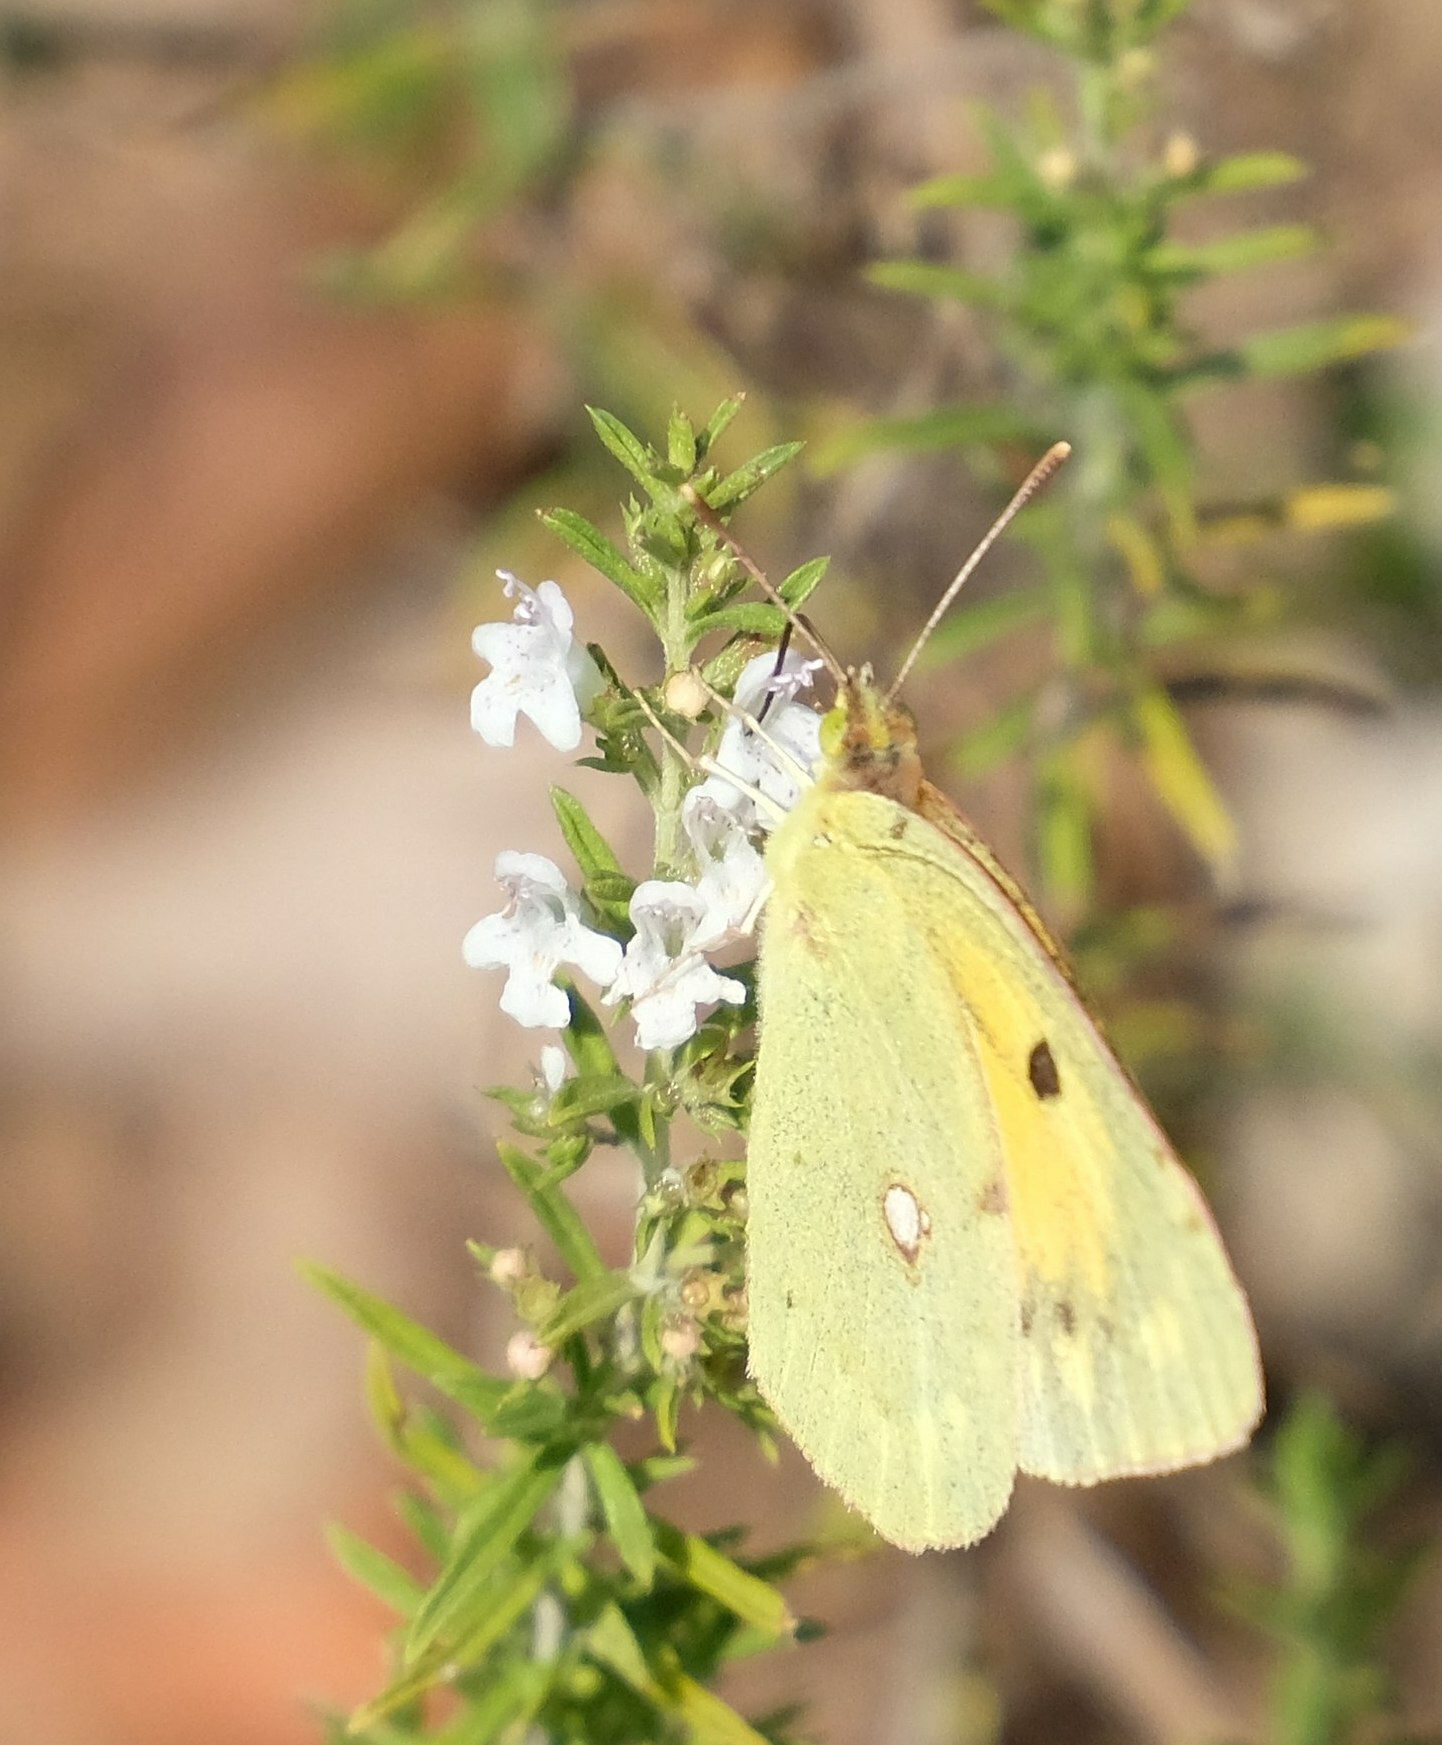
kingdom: Animalia
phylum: Arthropoda
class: Insecta
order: Lepidoptera
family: Pieridae
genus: Colias
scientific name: Colias croceus
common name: Clouded yellow
